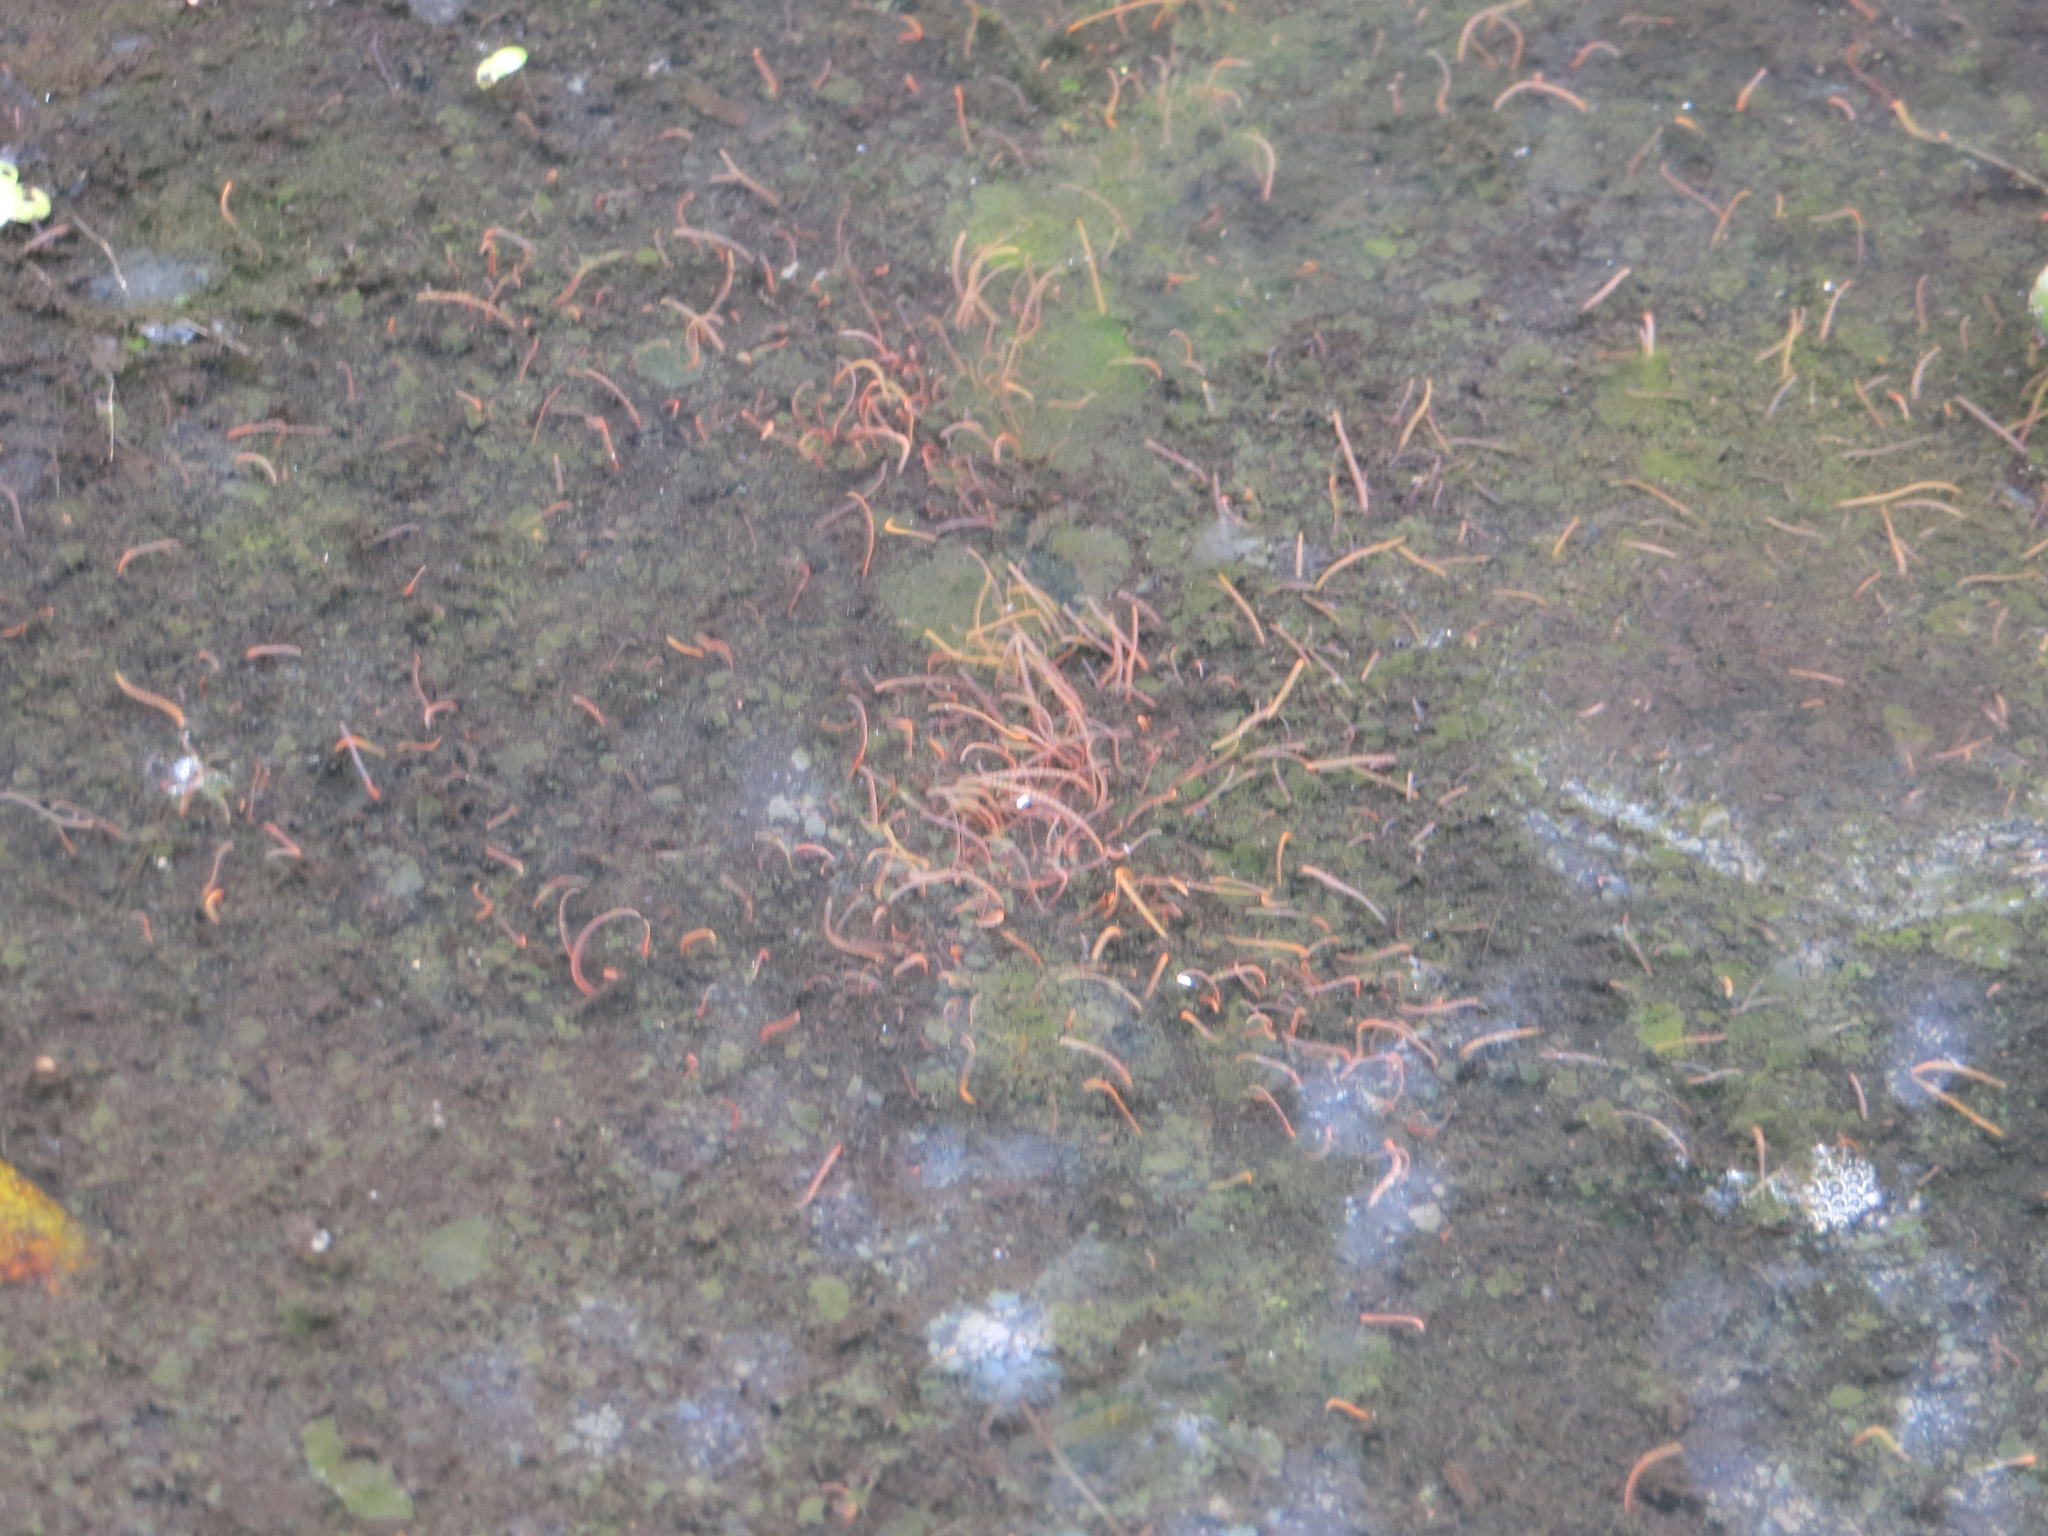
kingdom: Animalia
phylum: Annelida
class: Clitellata
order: Tubificida
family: Naididae
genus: Tubifex
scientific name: Tubifex tubifex
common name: River worm
